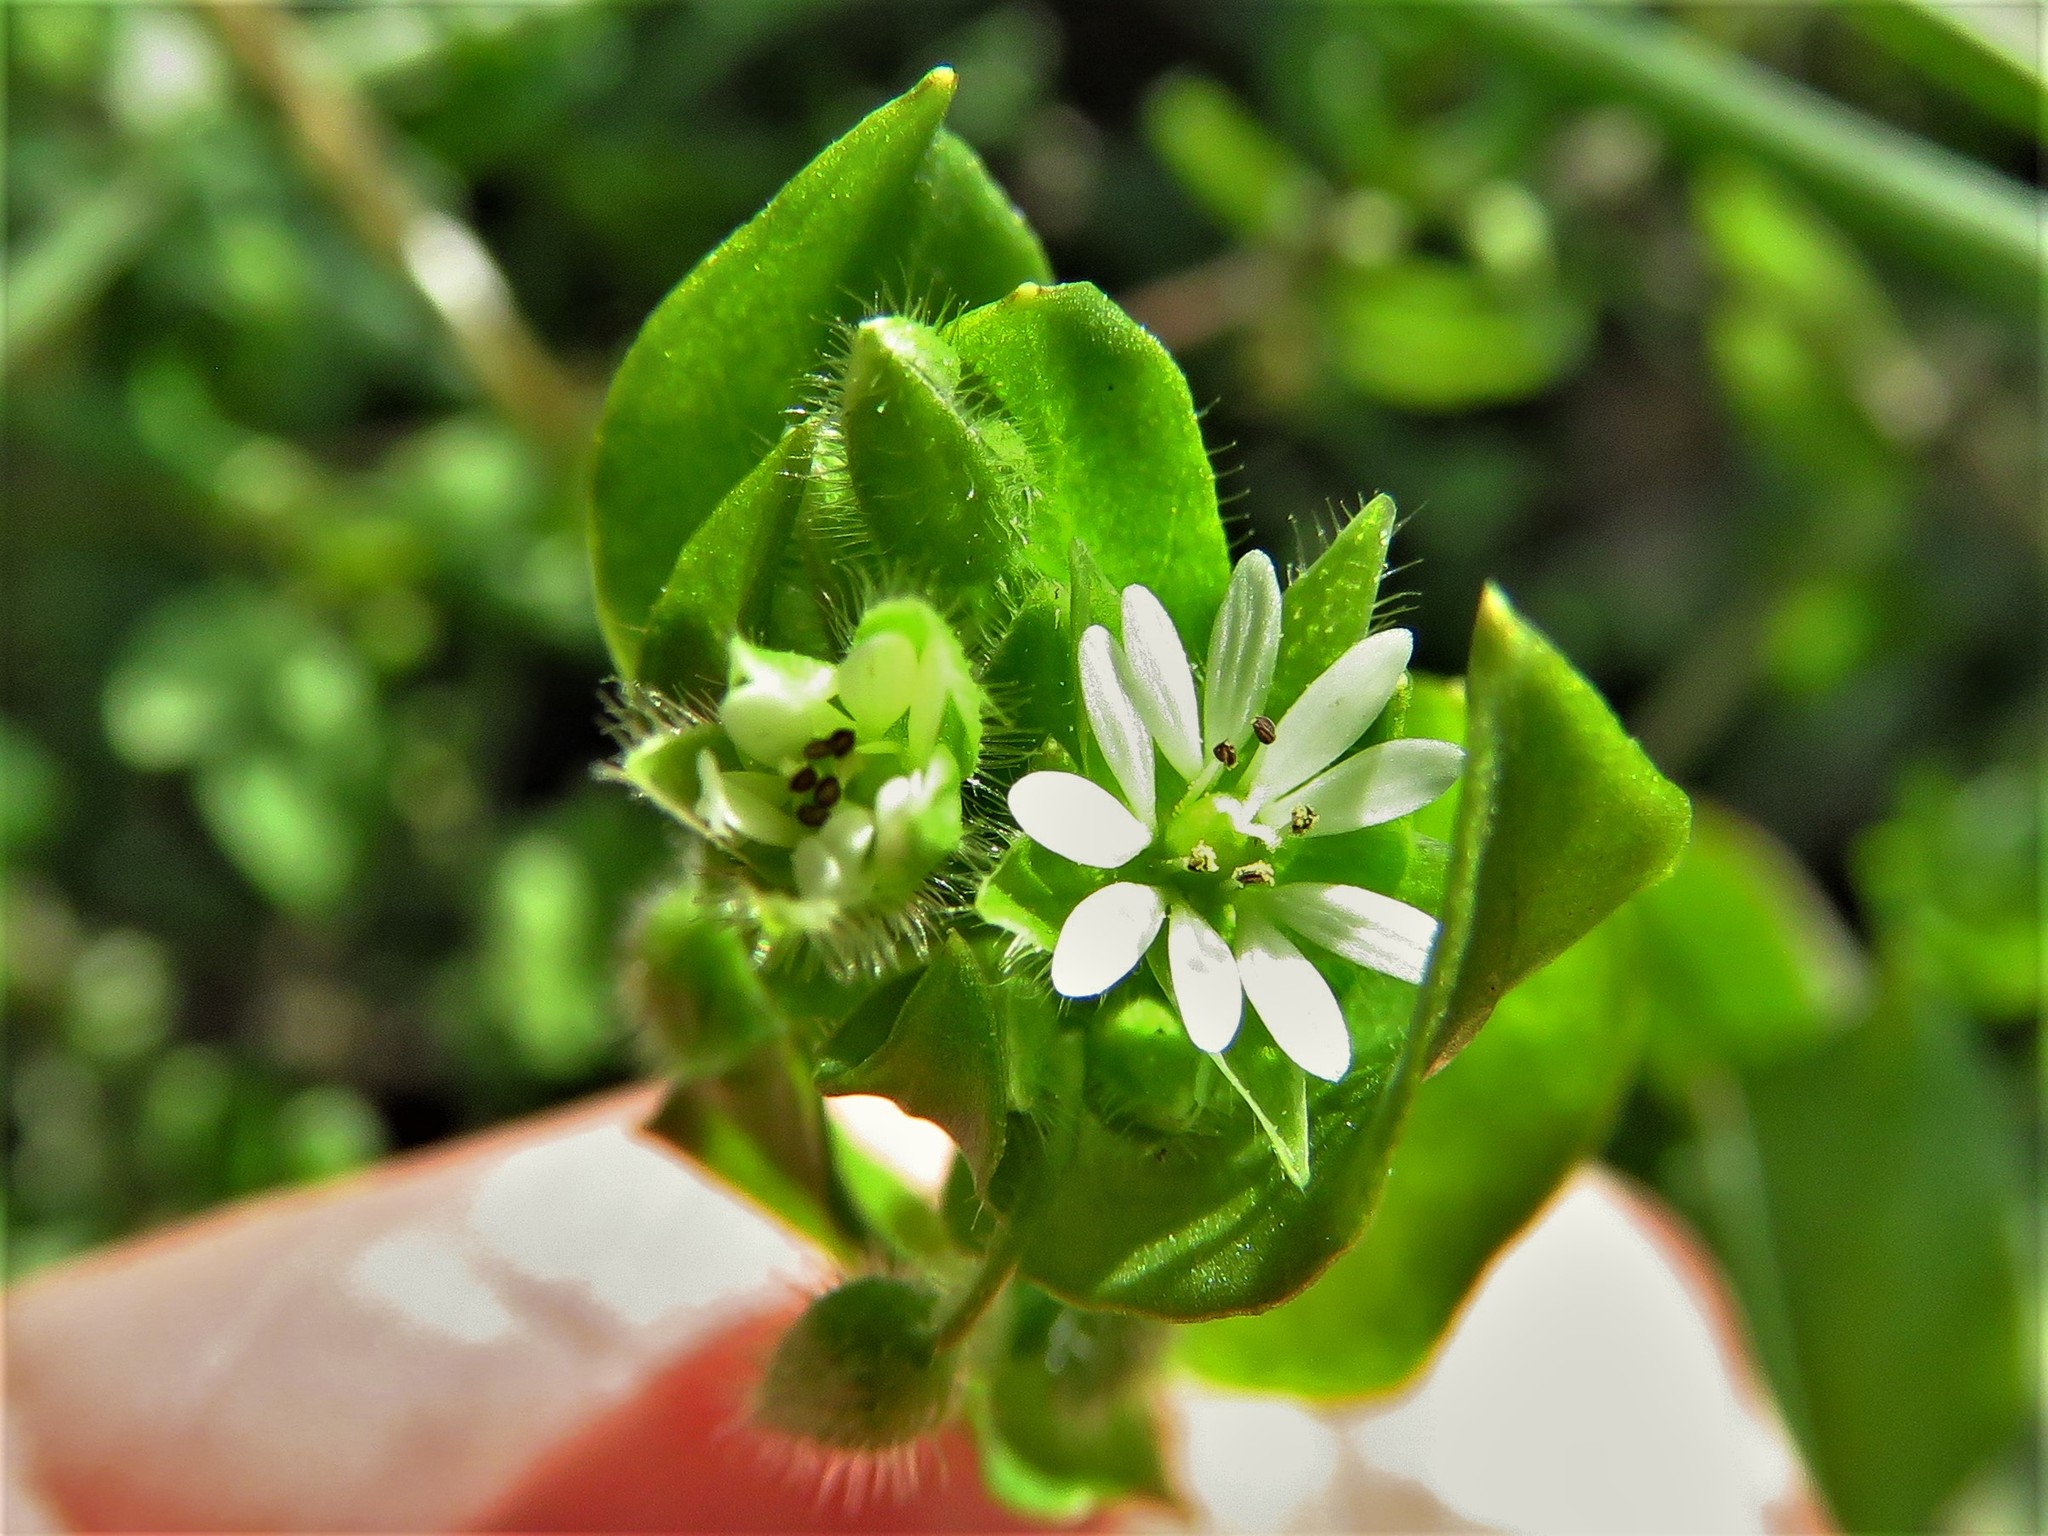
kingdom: Plantae
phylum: Tracheophyta
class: Magnoliopsida
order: Caryophyllales
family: Caryophyllaceae
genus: Stellaria
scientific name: Stellaria media
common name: Common chickweed
